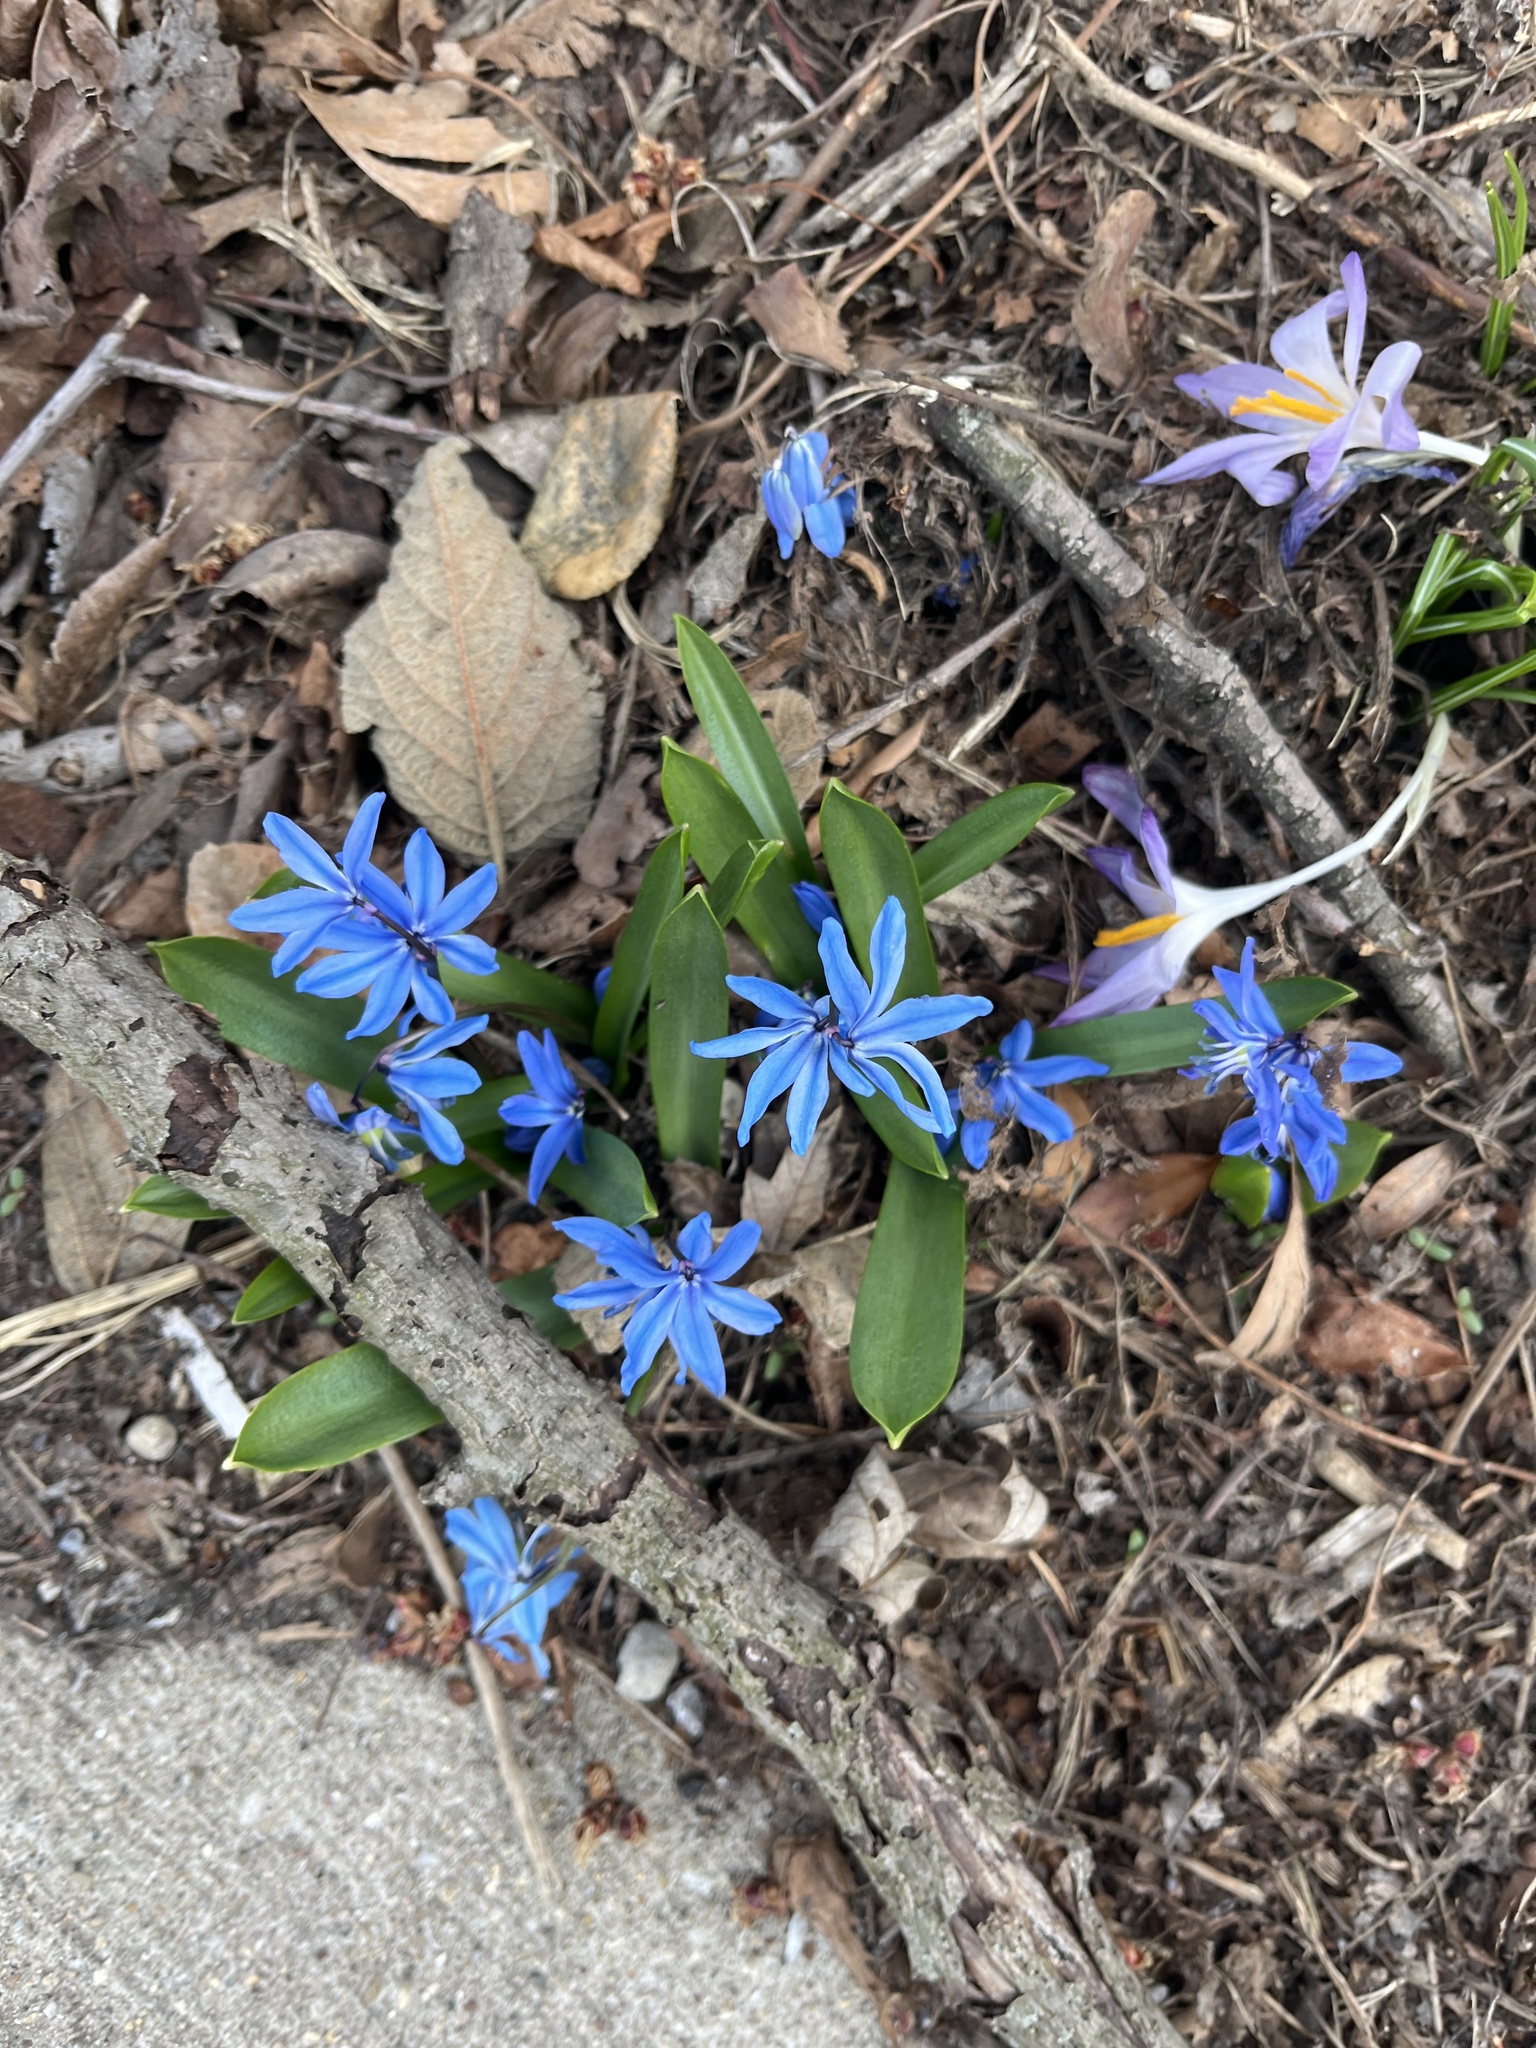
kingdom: Plantae
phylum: Tracheophyta
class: Liliopsida
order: Asparagales
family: Asparagaceae
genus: Scilla
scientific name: Scilla siberica
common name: Siberian squill
